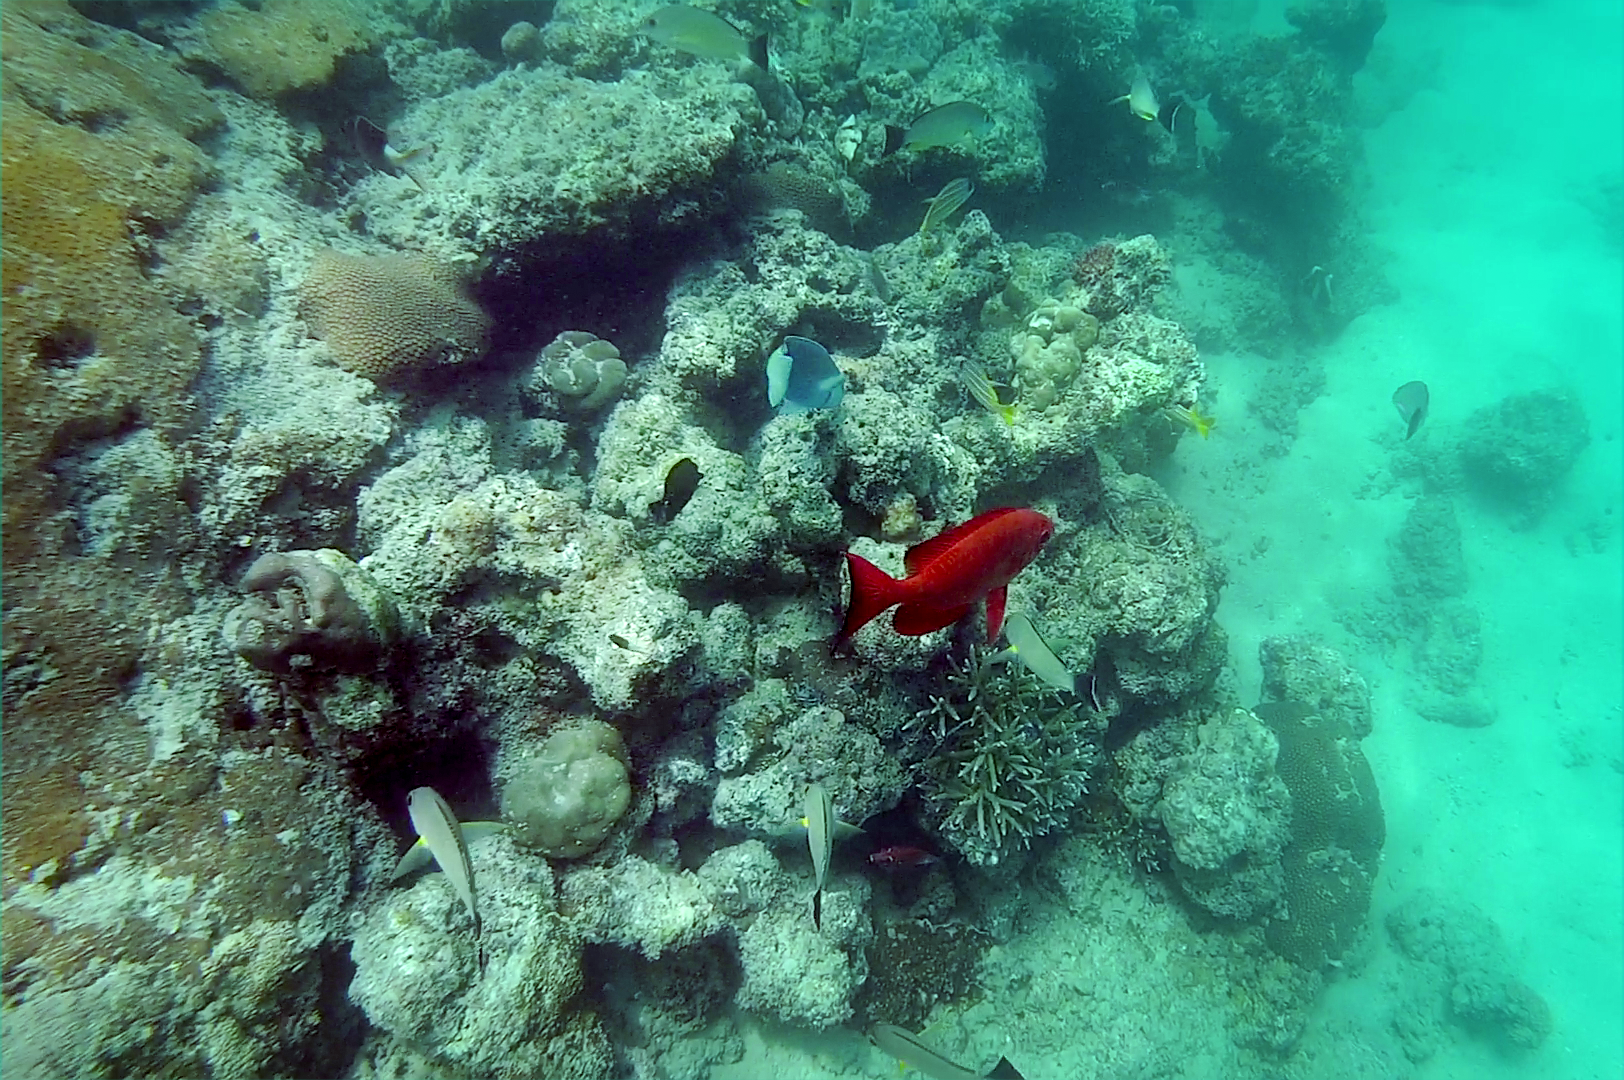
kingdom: Animalia
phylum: Chordata
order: Perciformes
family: Priacanthidae
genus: Priacanthus
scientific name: Priacanthus hamrur
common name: Moontail bullseye
